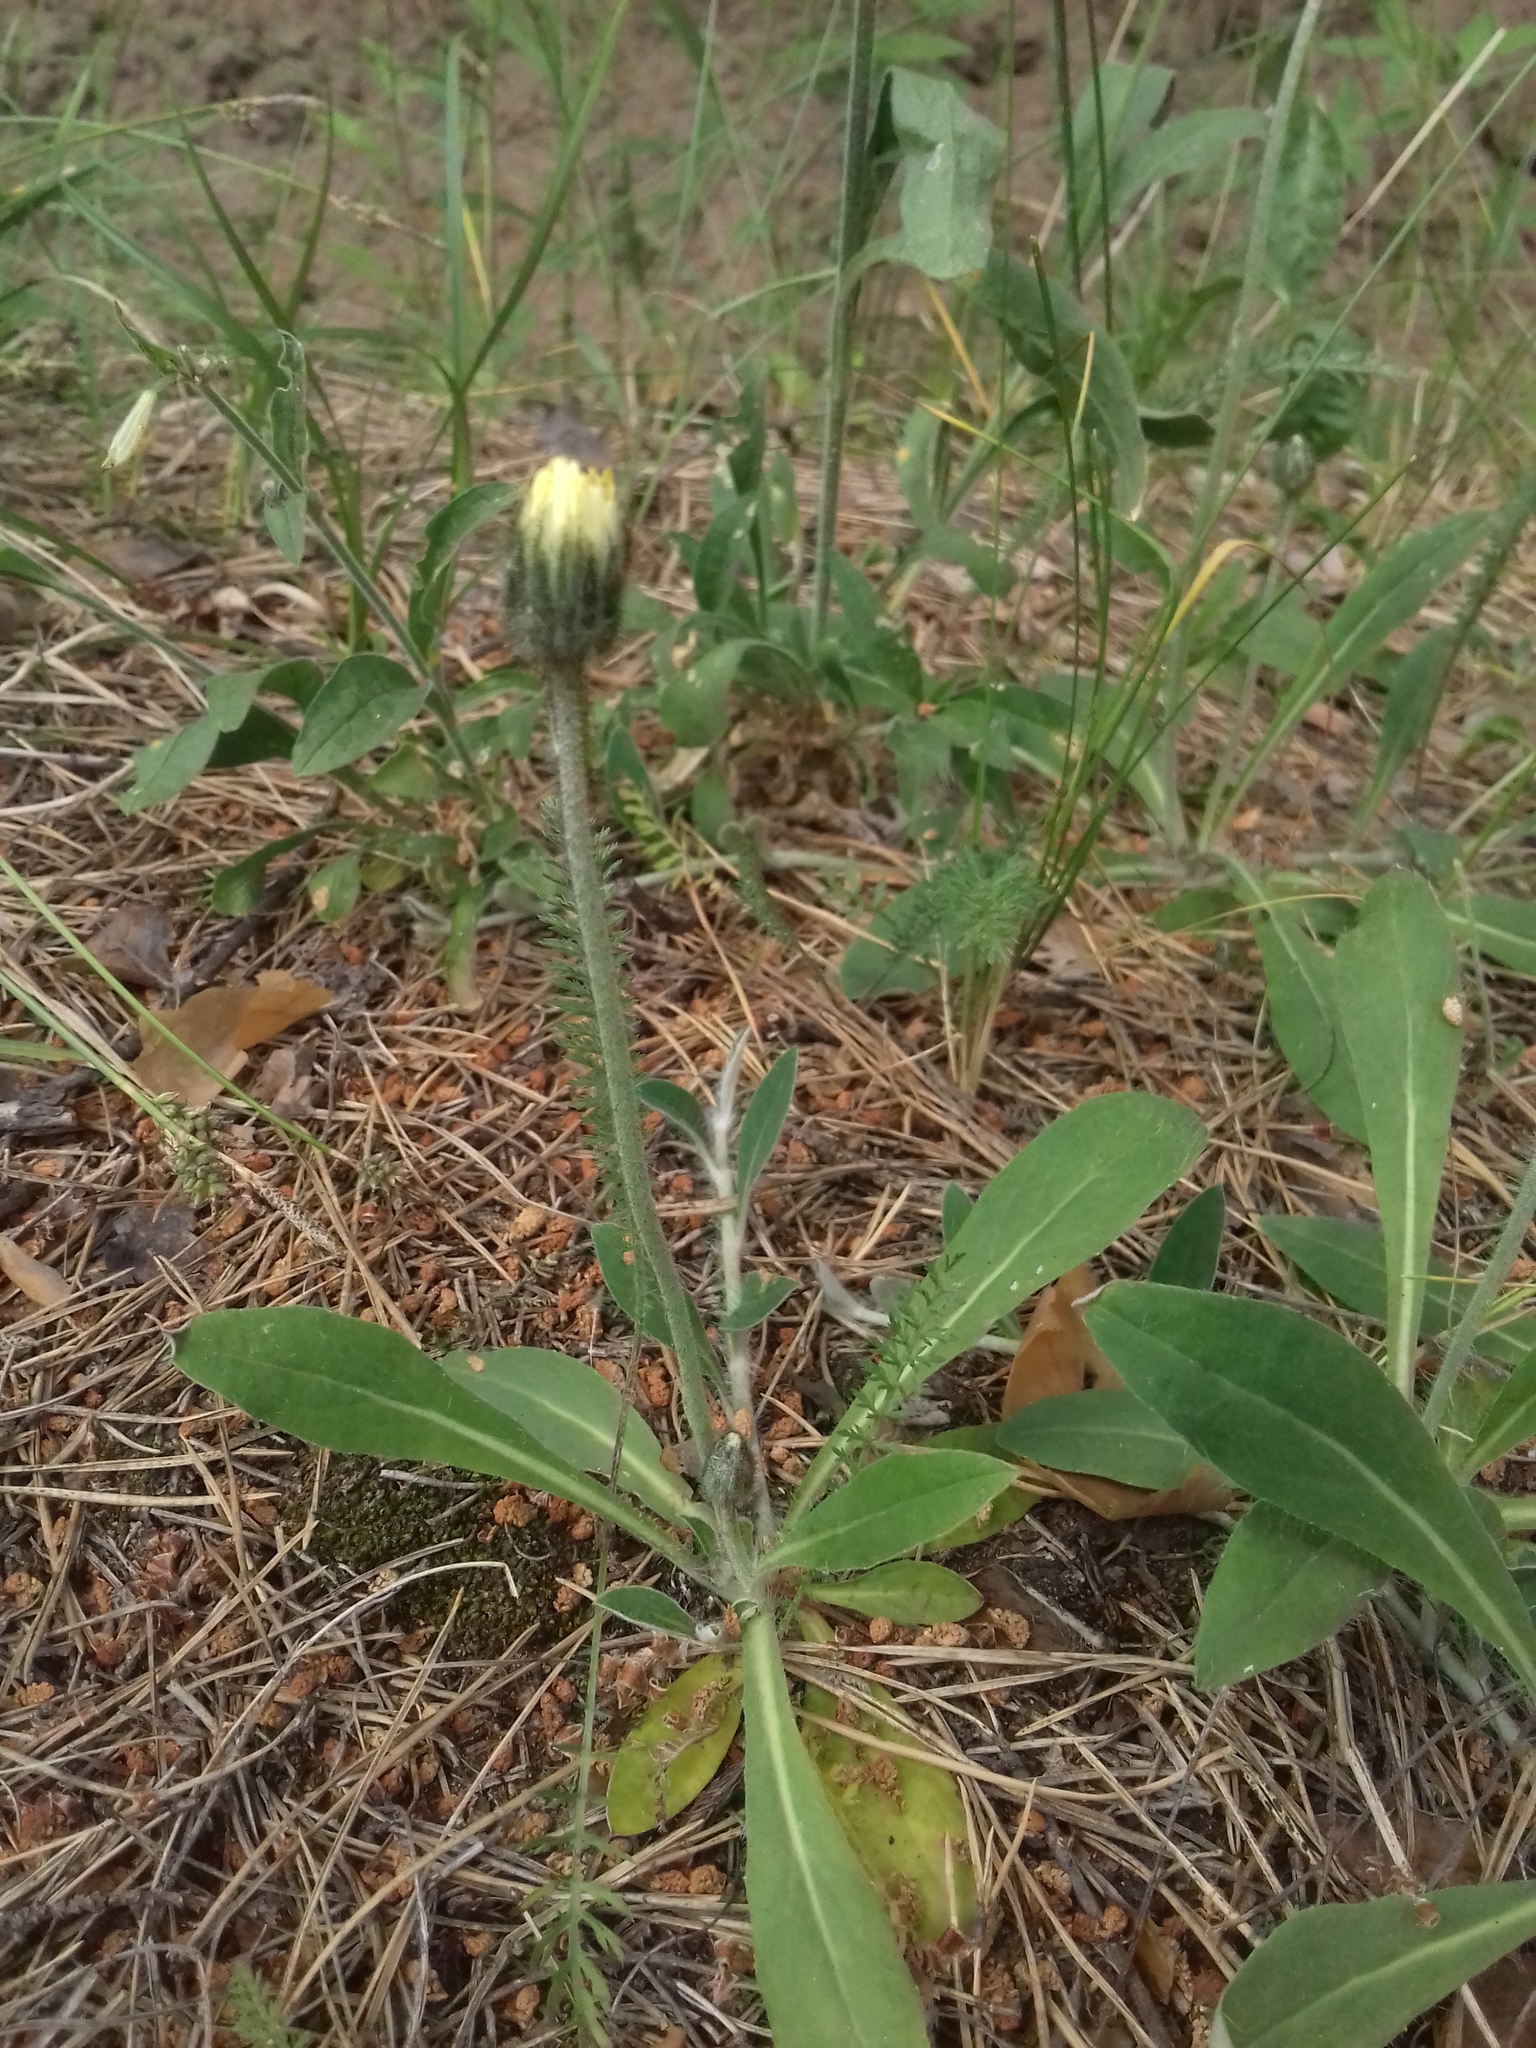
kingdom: Plantae
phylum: Tracheophyta
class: Magnoliopsida
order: Asterales
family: Asteraceae
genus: Pilosella
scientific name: Pilosella officinarum
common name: Mouse-ear hawkweed
